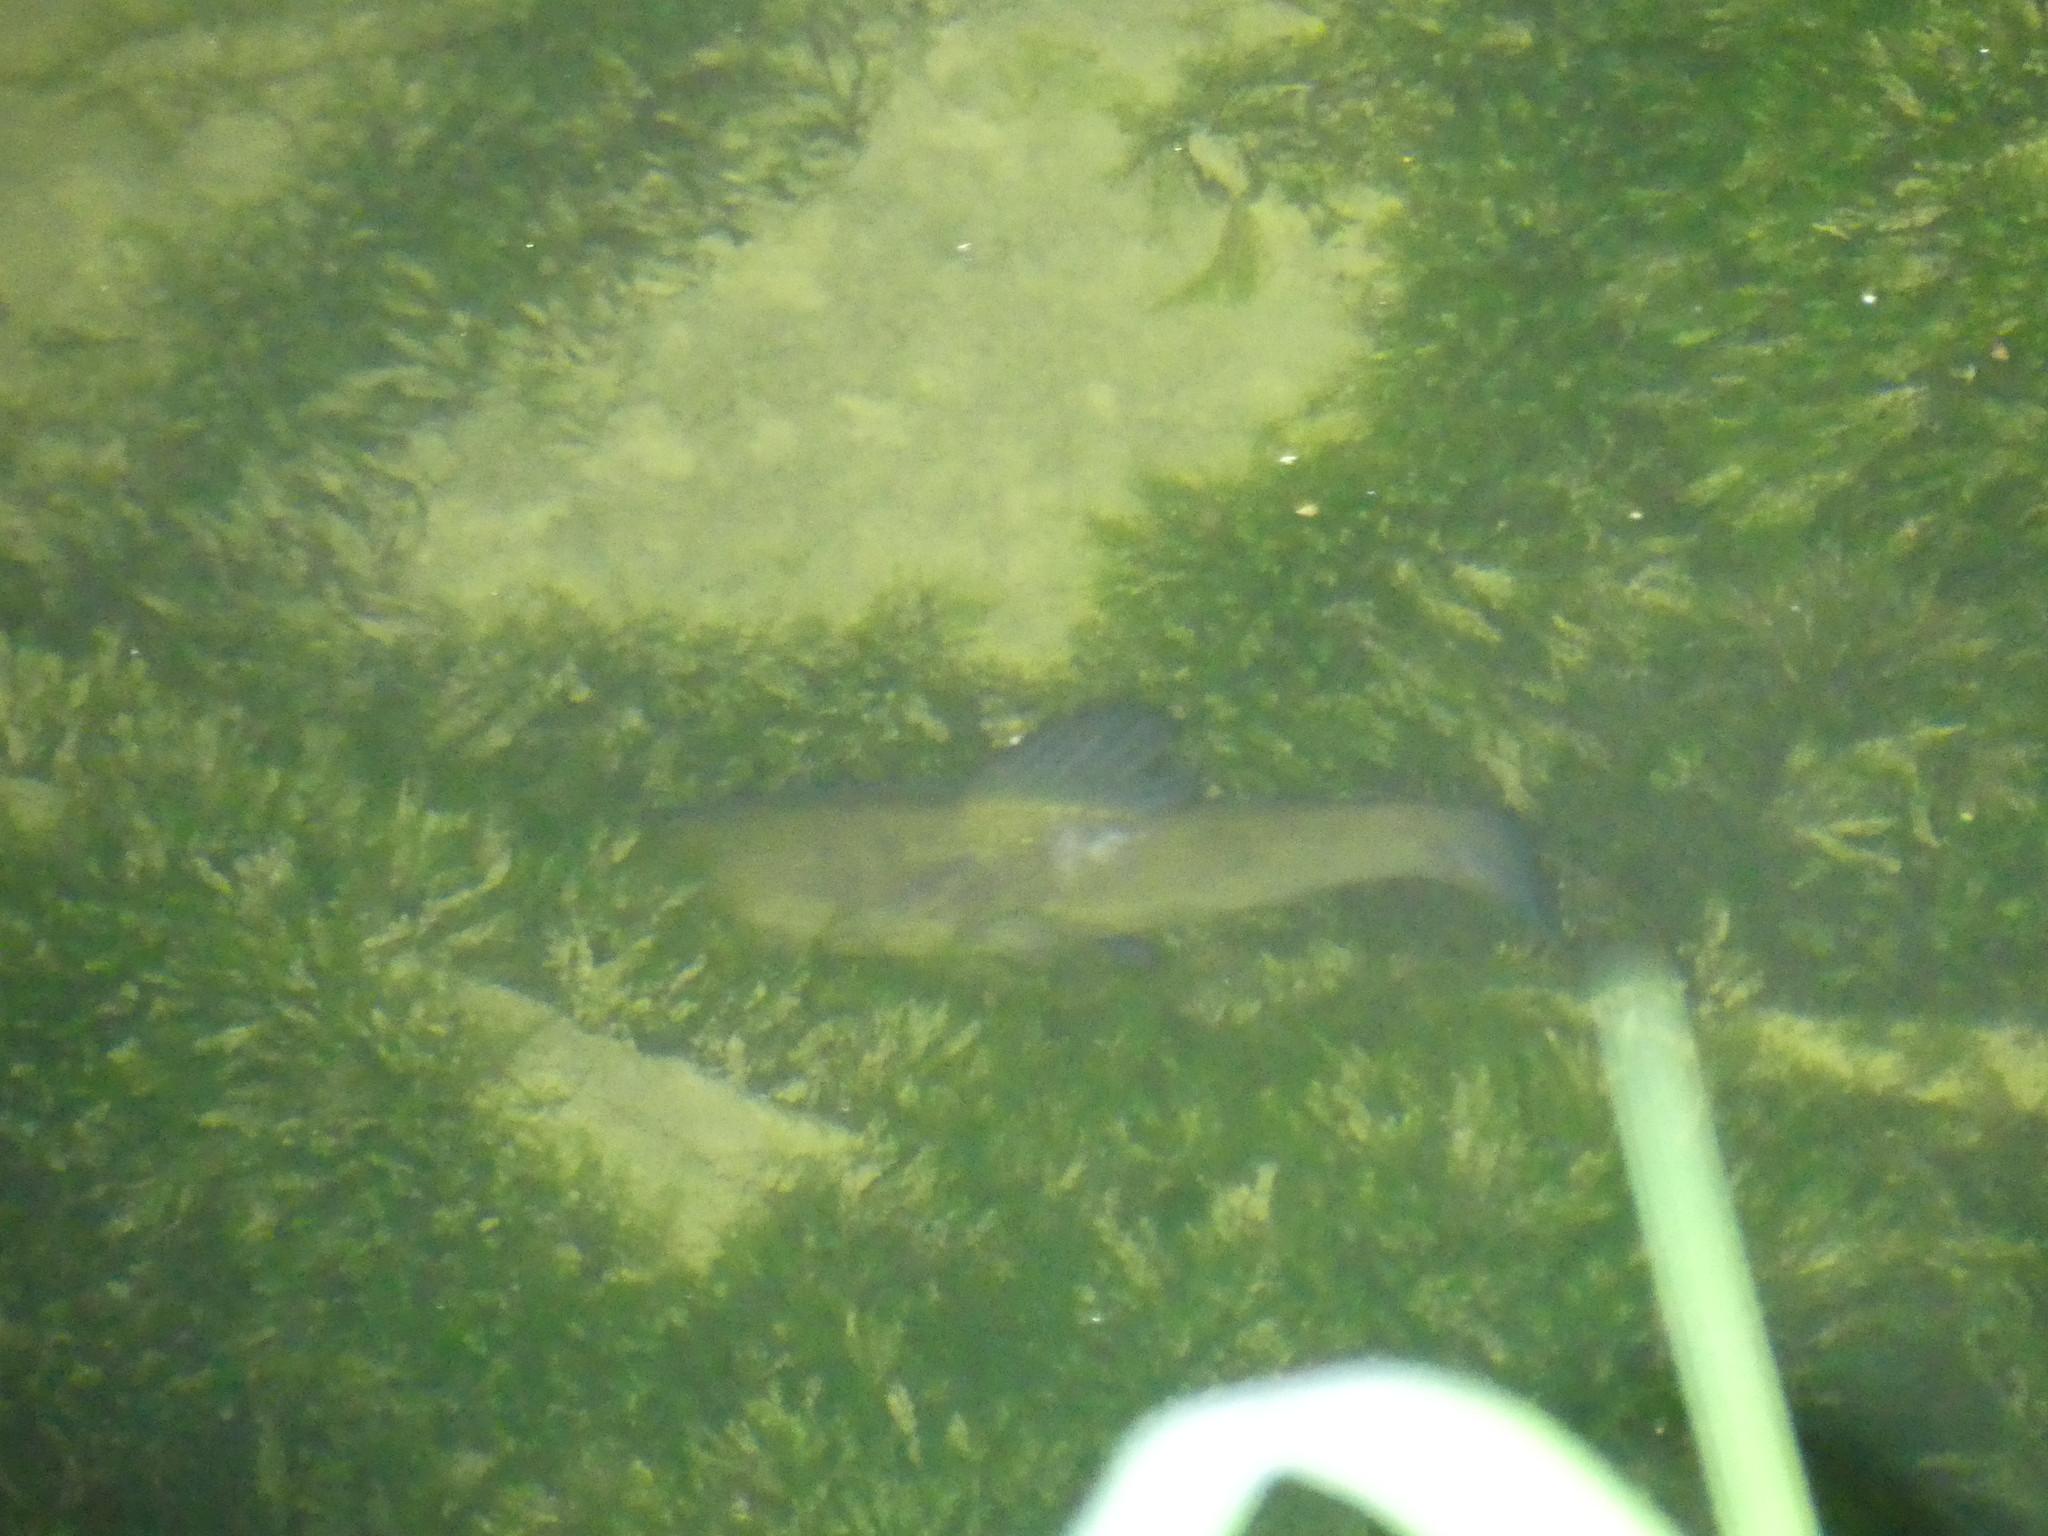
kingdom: Animalia
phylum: Chordata
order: Cypriniformes
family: Cyprinidae
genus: Tinca
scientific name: Tinca tinca
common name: Tench
